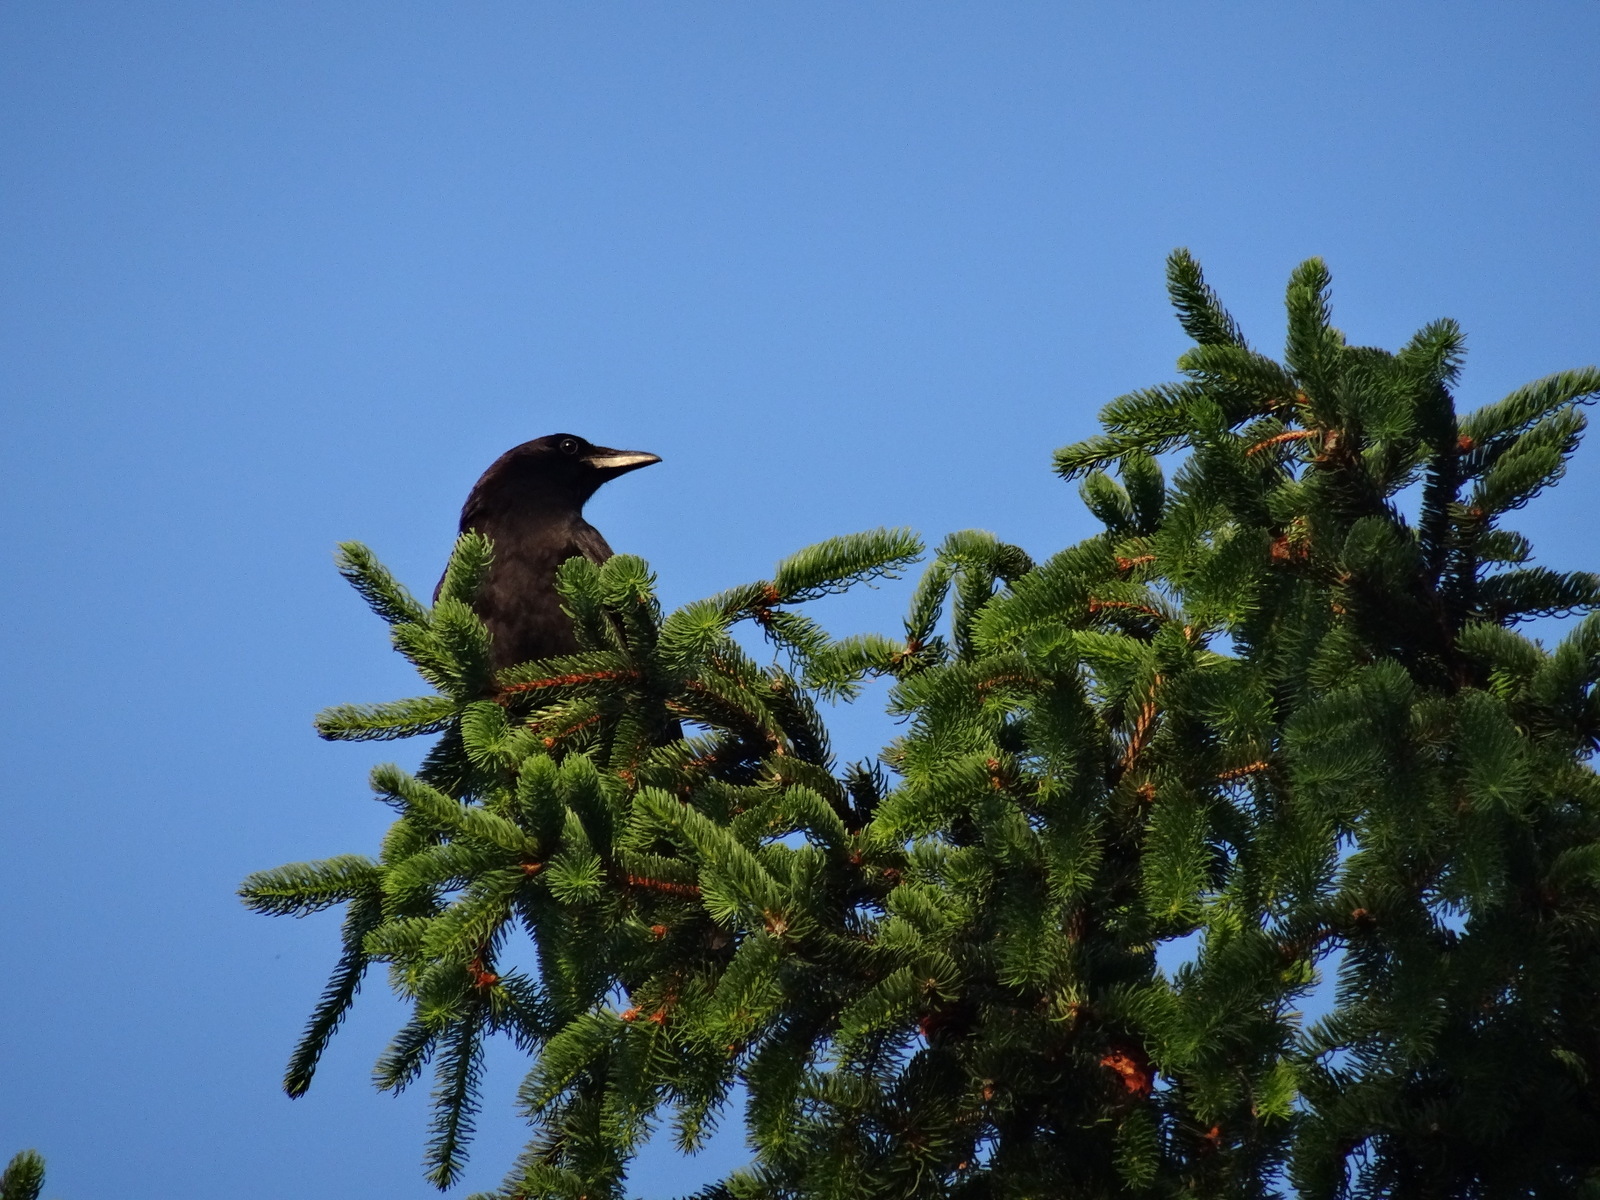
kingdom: Animalia
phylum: Chordata
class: Aves
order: Passeriformes
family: Corvidae
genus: Corvus
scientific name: Corvus brachyrhynchos
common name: American crow
